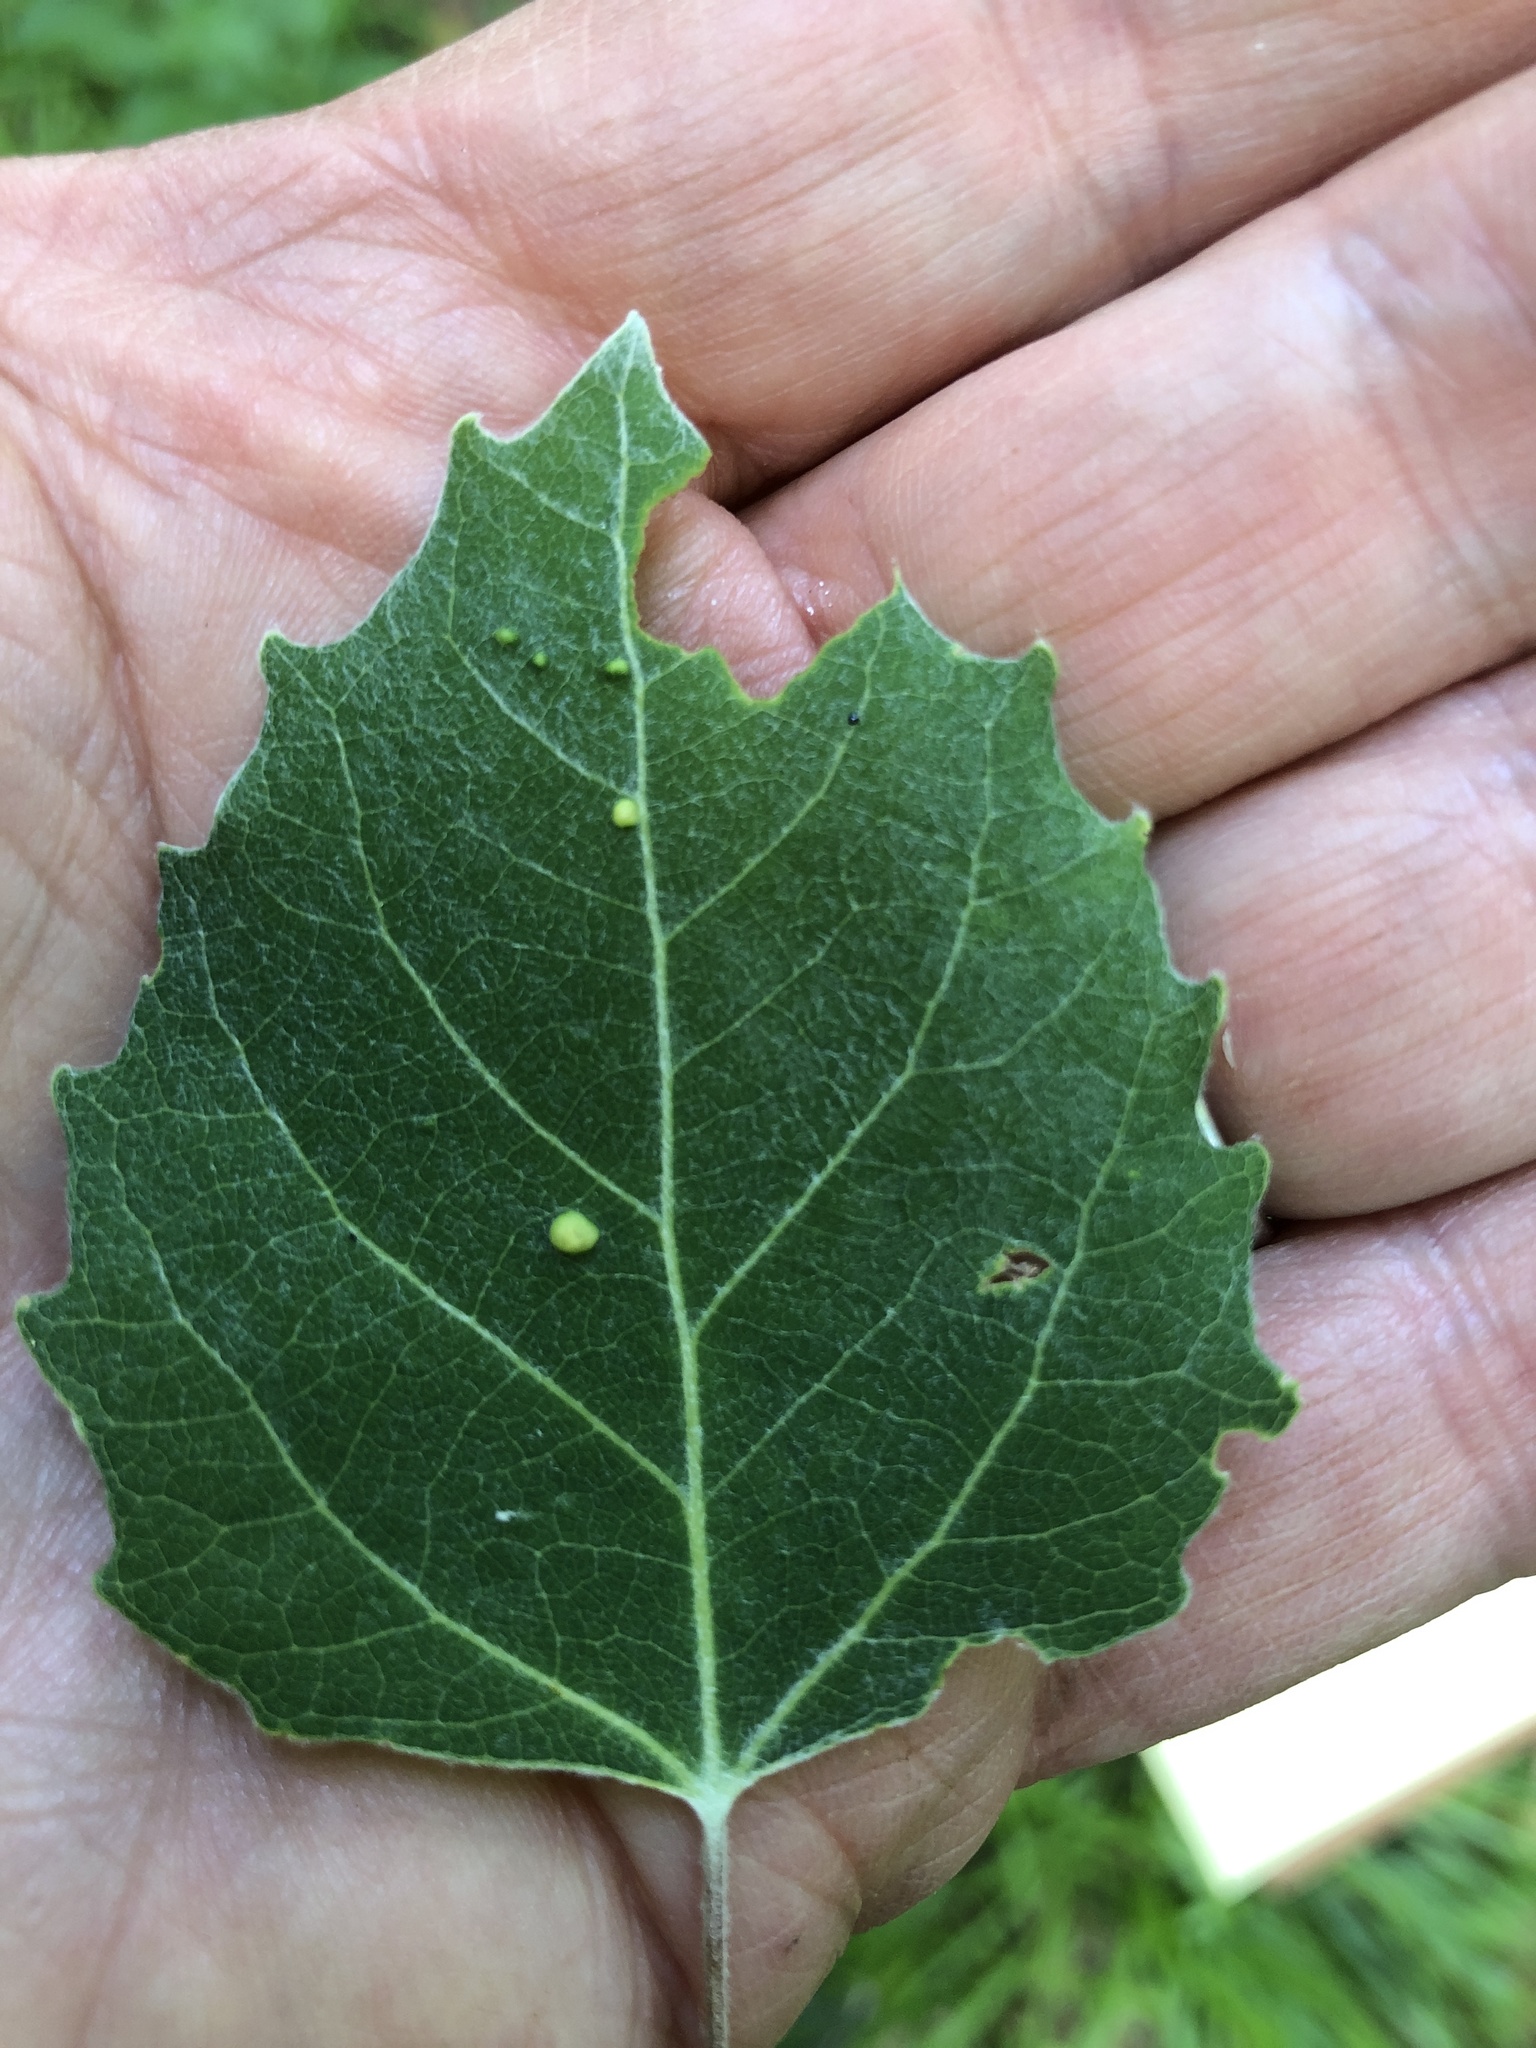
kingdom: Plantae
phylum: Tracheophyta
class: Magnoliopsida
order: Malpighiales
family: Salicaceae
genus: Populus
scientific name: Populus grandidentata
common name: Bigtooth aspen
